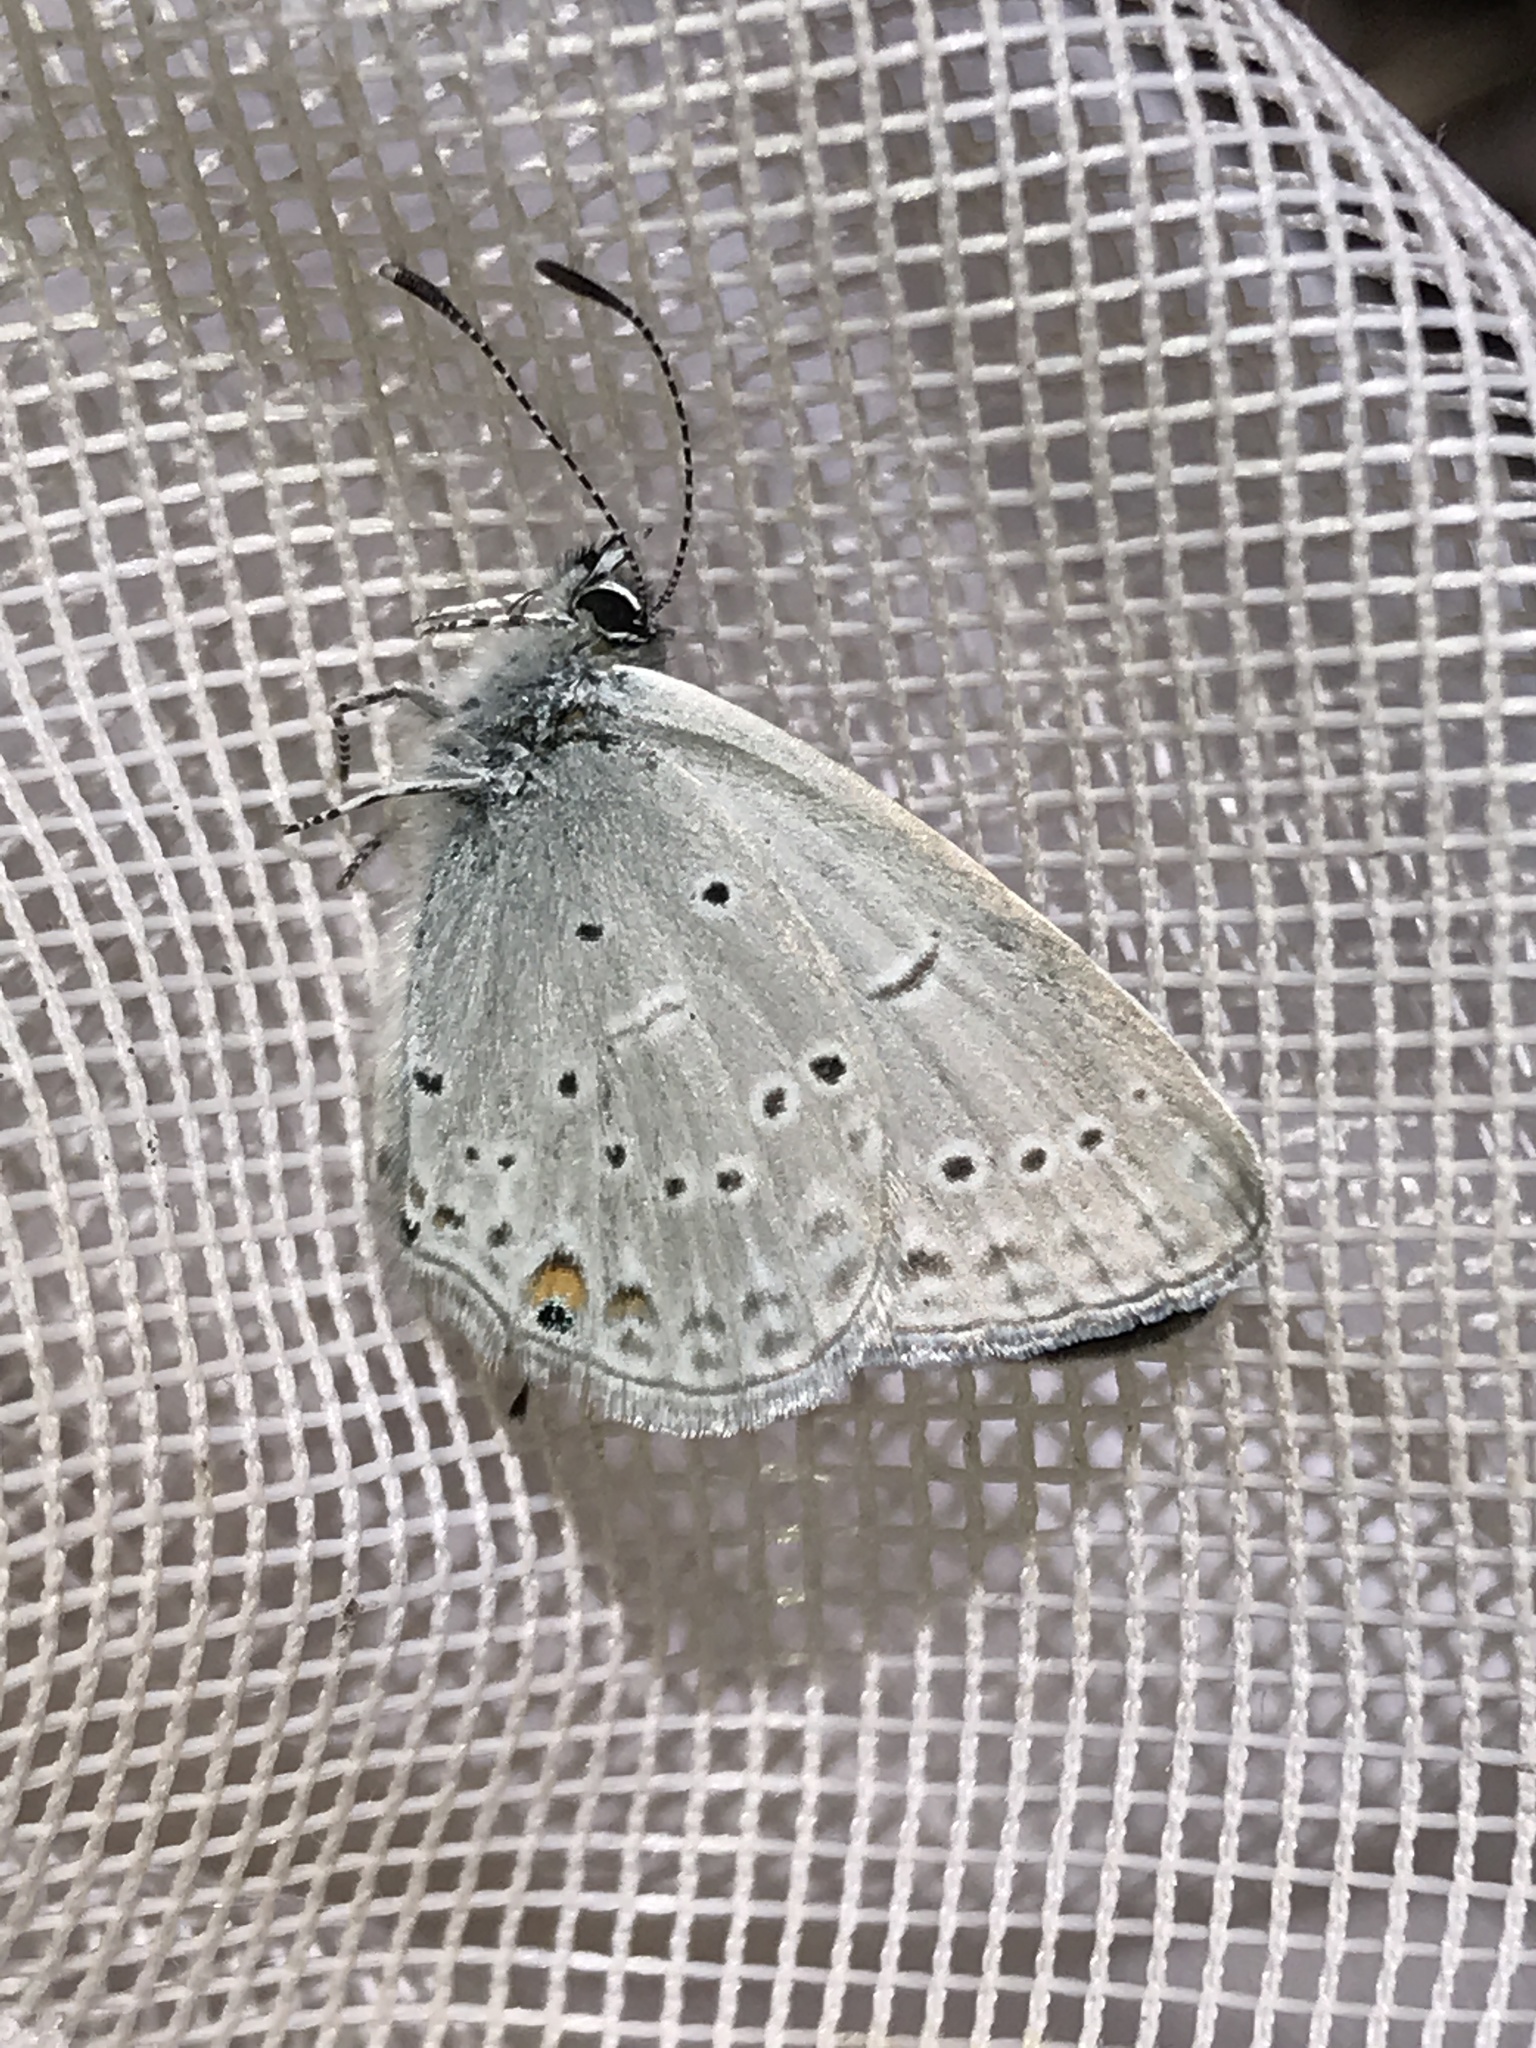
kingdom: Animalia
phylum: Arthropoda
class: Insecta
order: Lepidoptera
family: Lycaenidae
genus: Elkalyce
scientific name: Elkalyce amyntula
